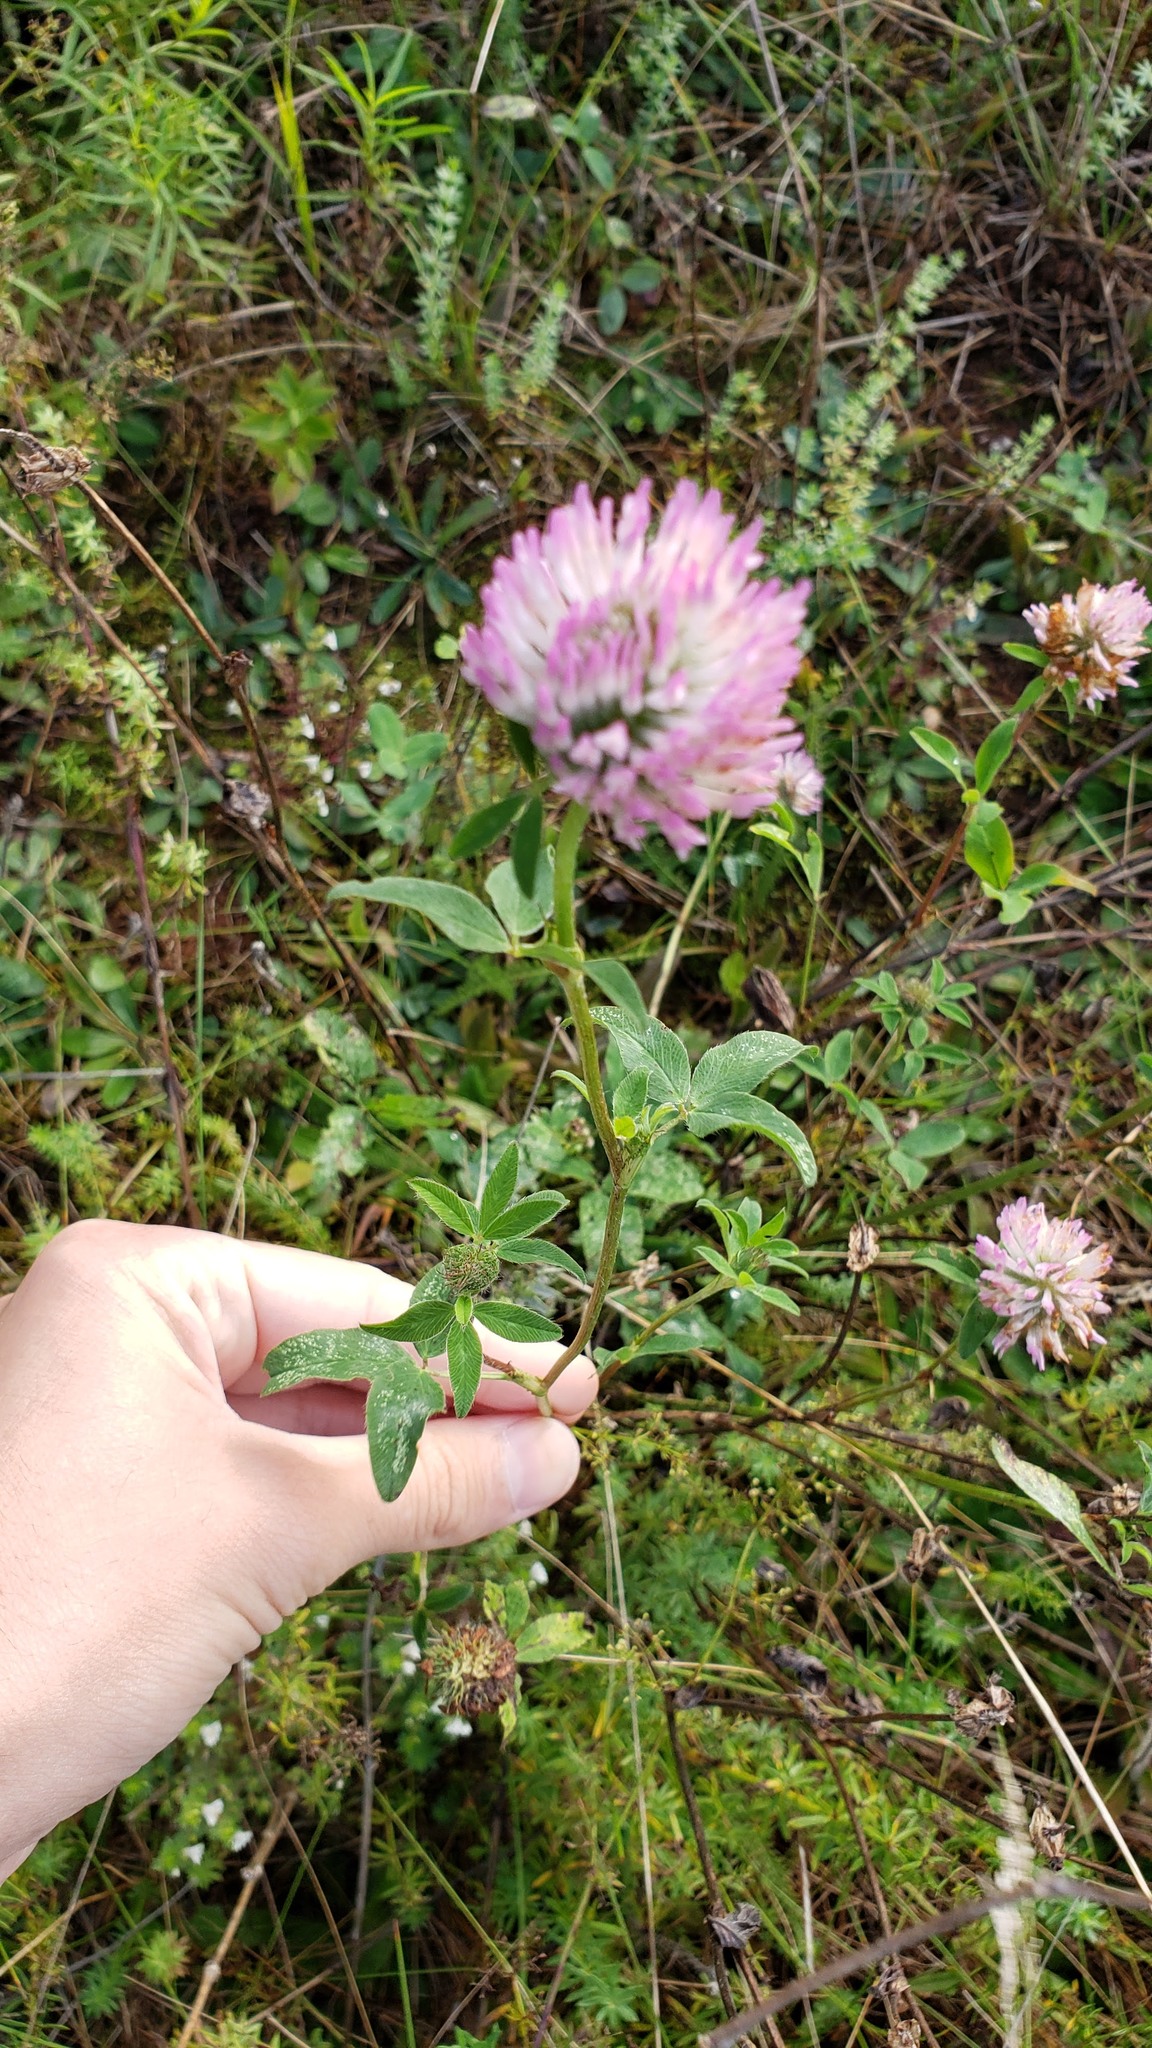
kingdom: Plantae
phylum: Tracheophyta
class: Magnoliopsida
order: Fabales
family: Fabaceae
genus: Trifolium
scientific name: Trifolium pratense
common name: Red clover
